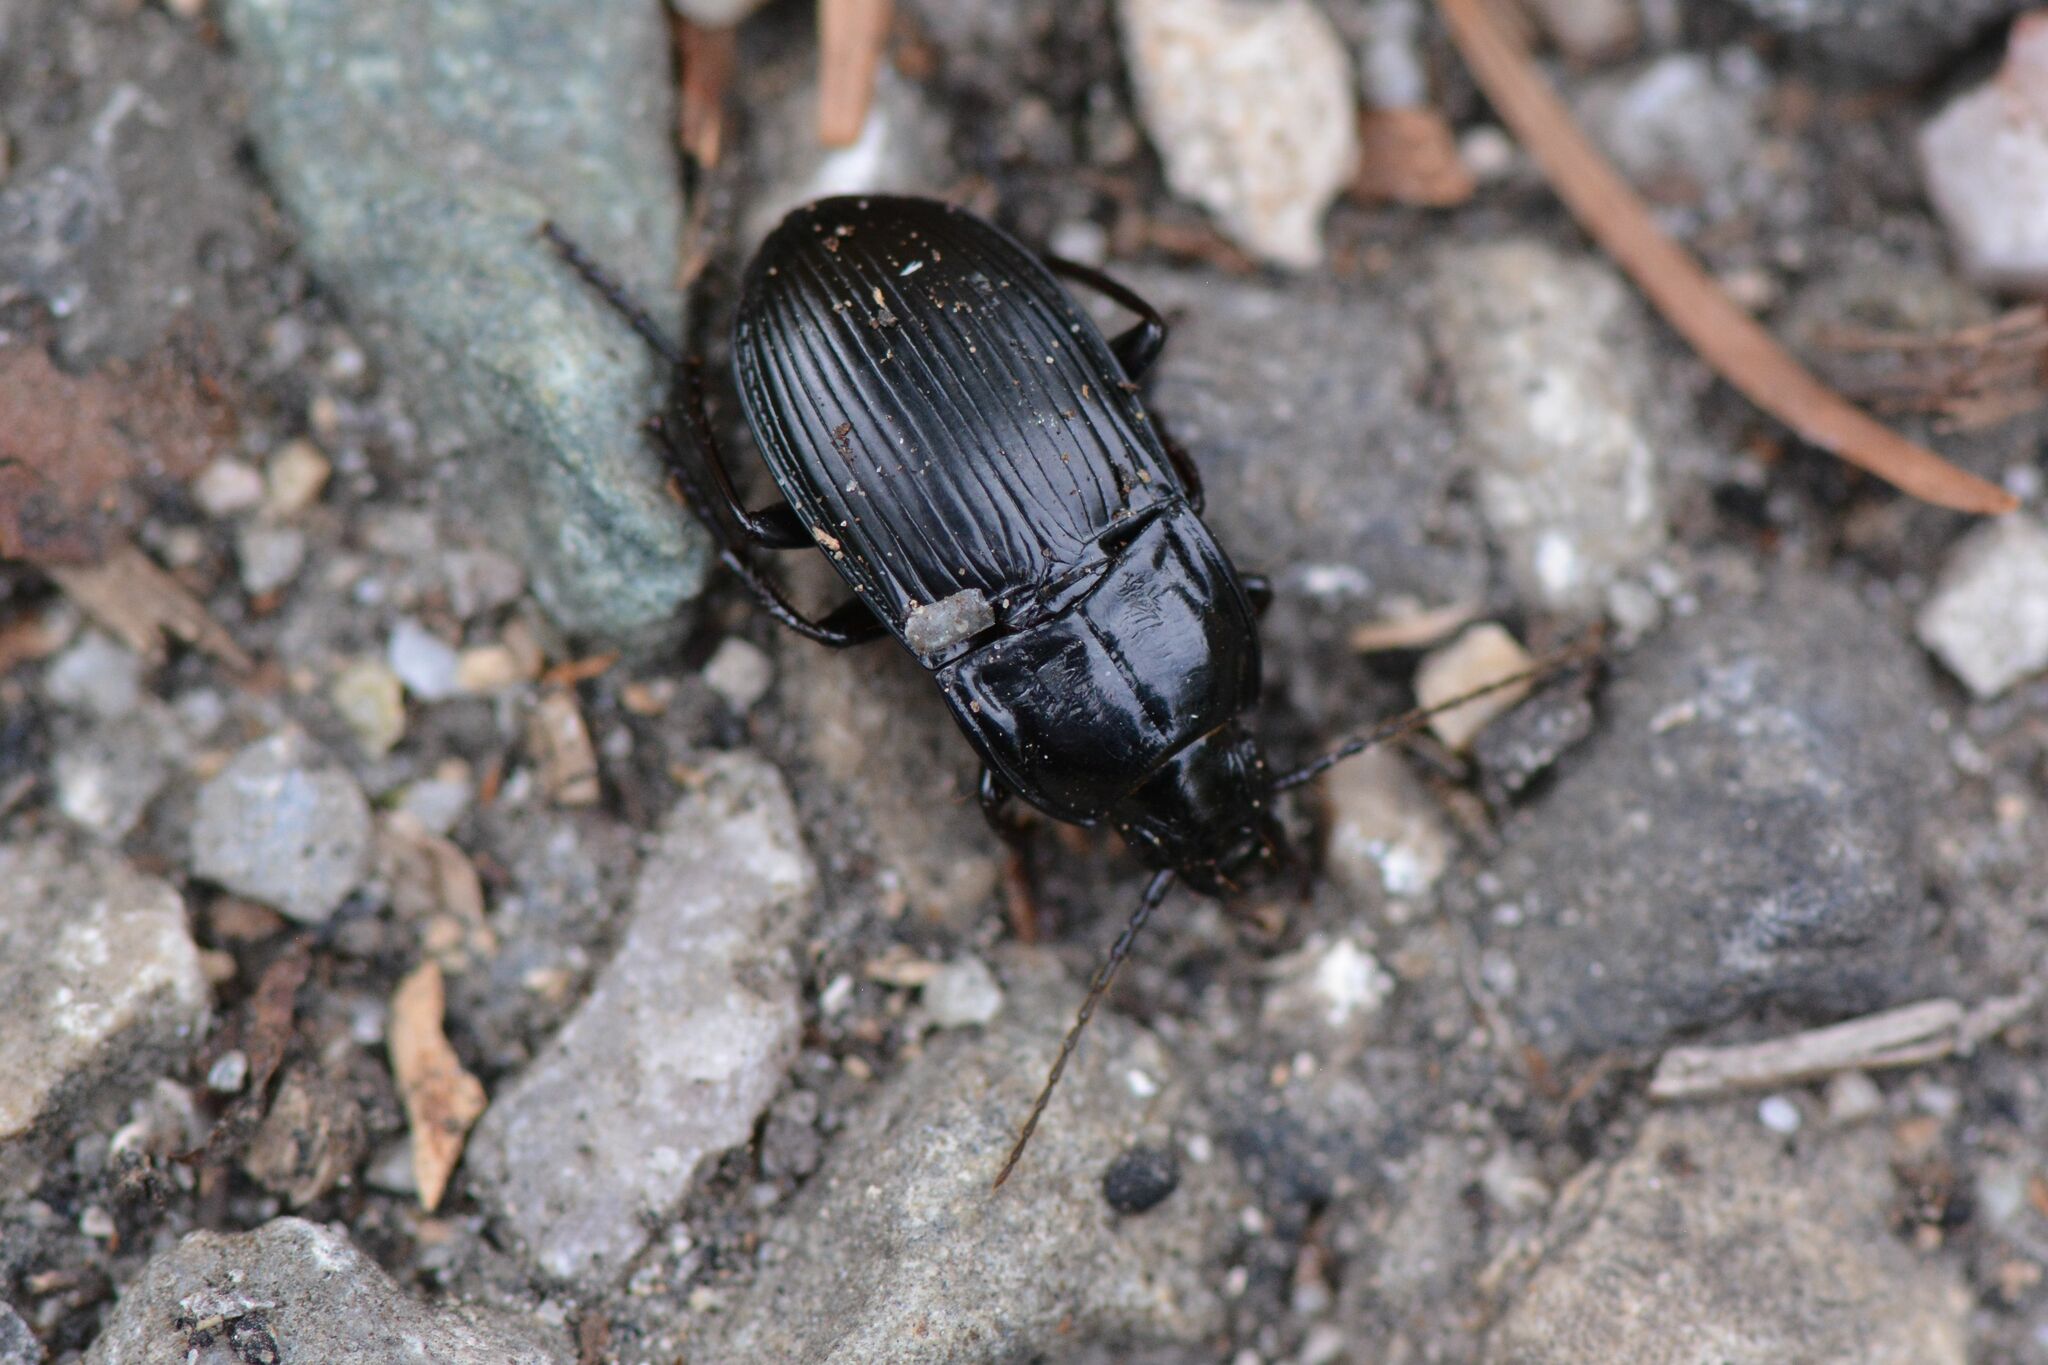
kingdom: Animalia
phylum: Arthropoda
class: Insecta
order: Coleoptera
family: Carabidae
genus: Abax
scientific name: Abax ovalis
